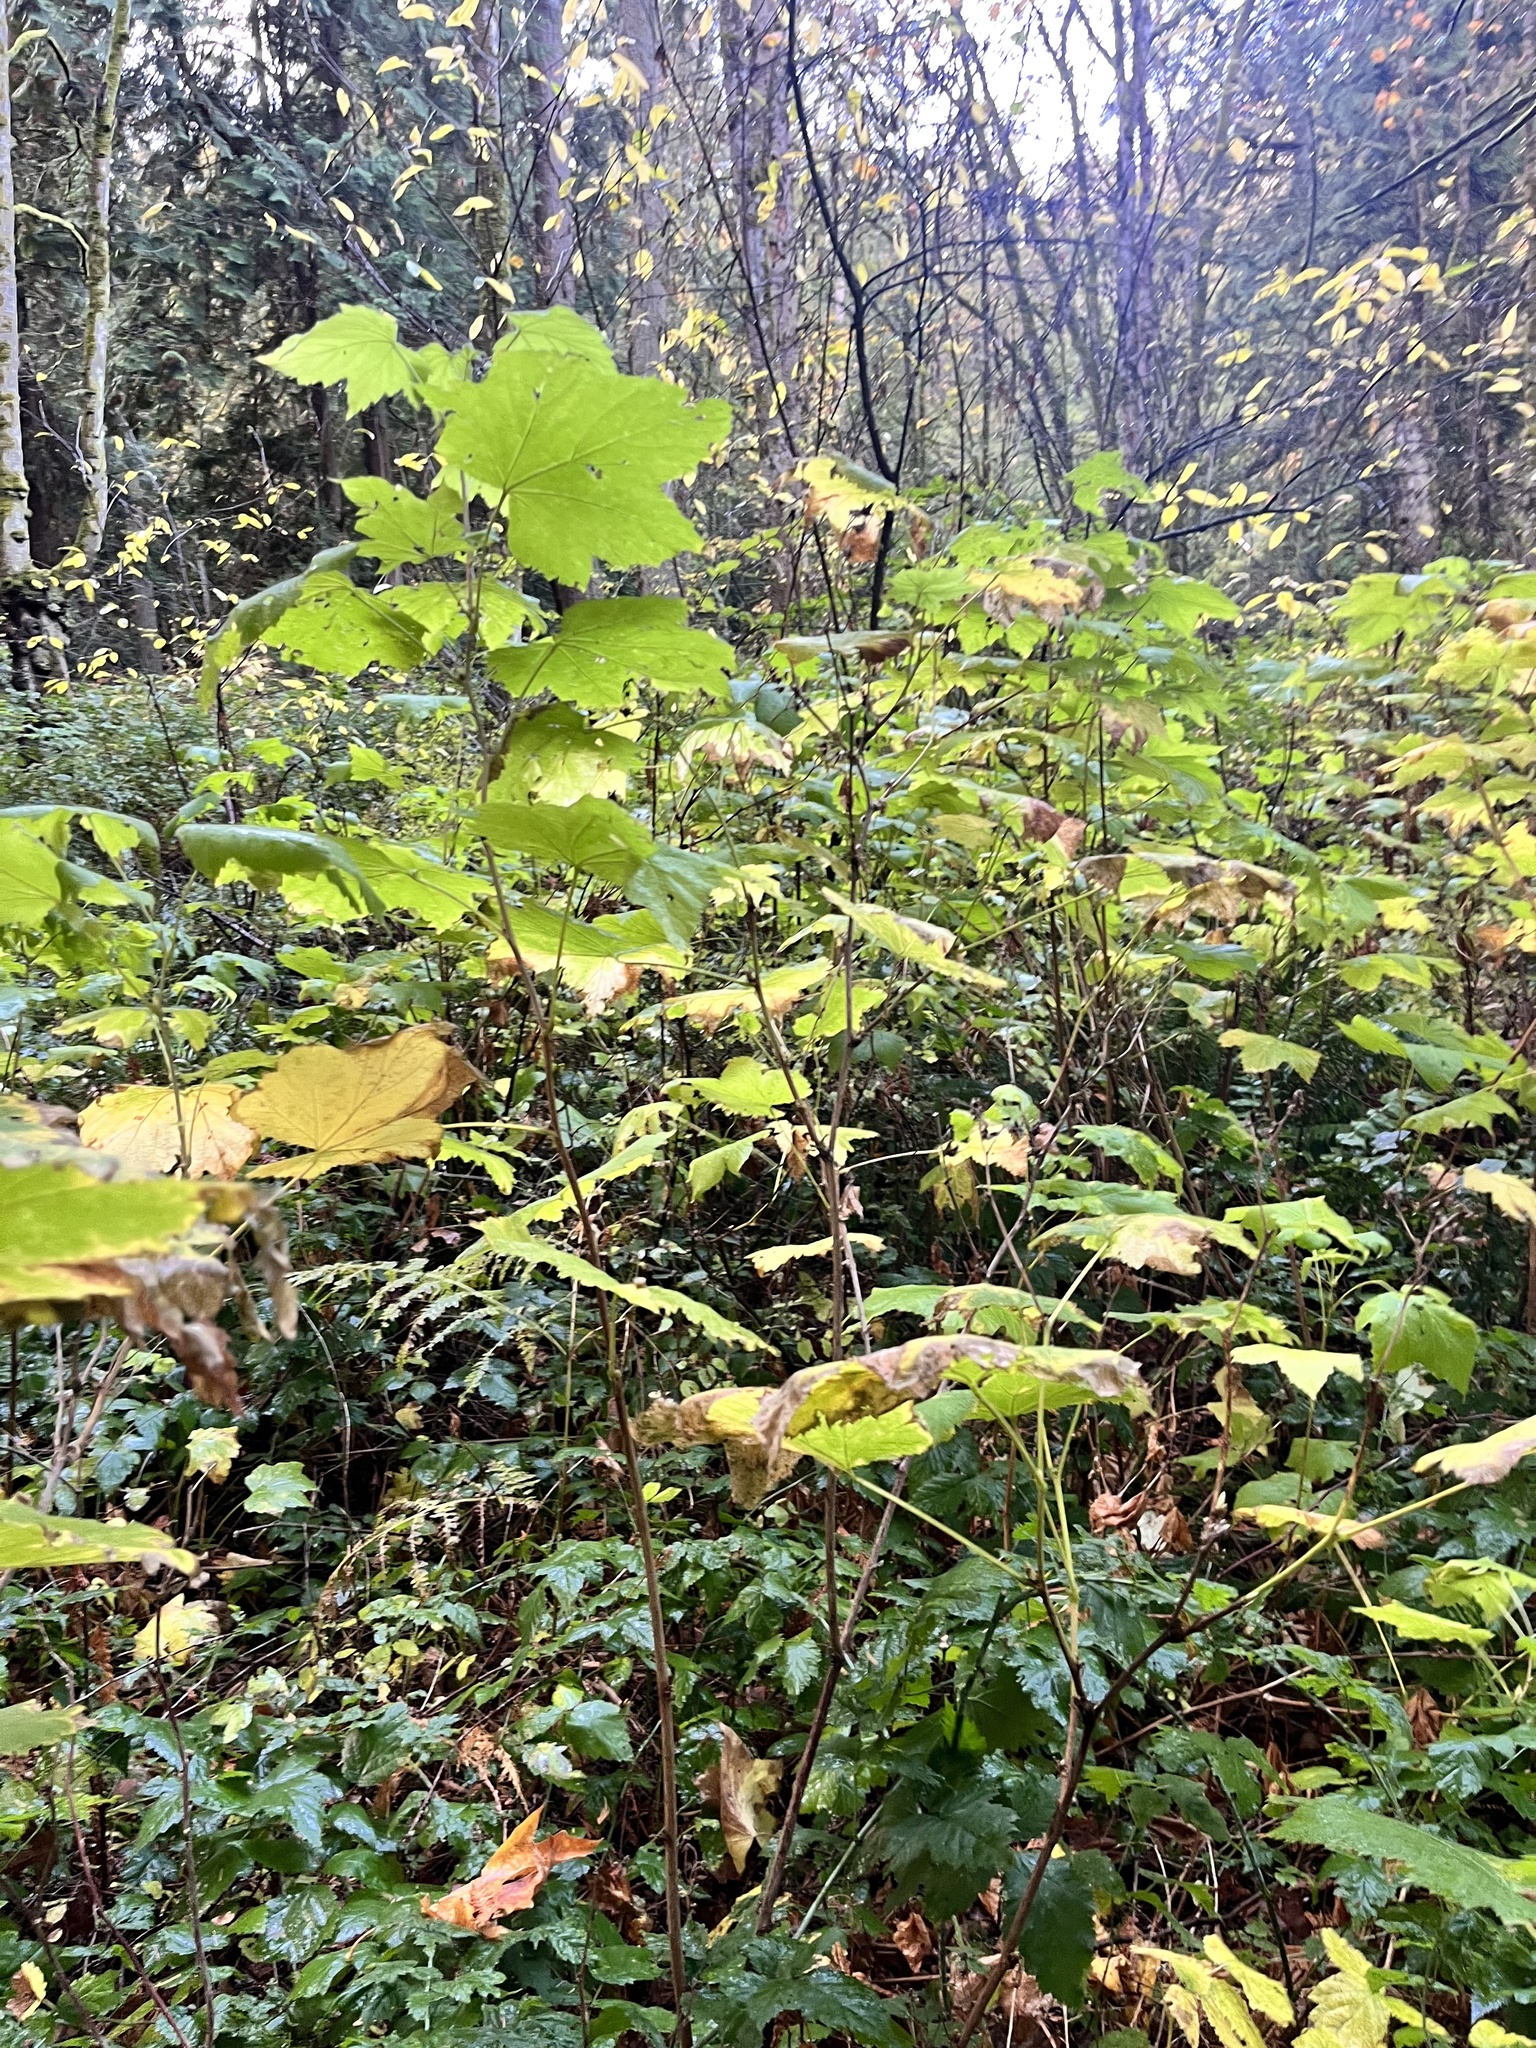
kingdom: Plantae
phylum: Tracheophyta
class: Magnoliopsida
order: Rosales
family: Rosaceae
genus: Rubus
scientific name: Rubus parviflorus
